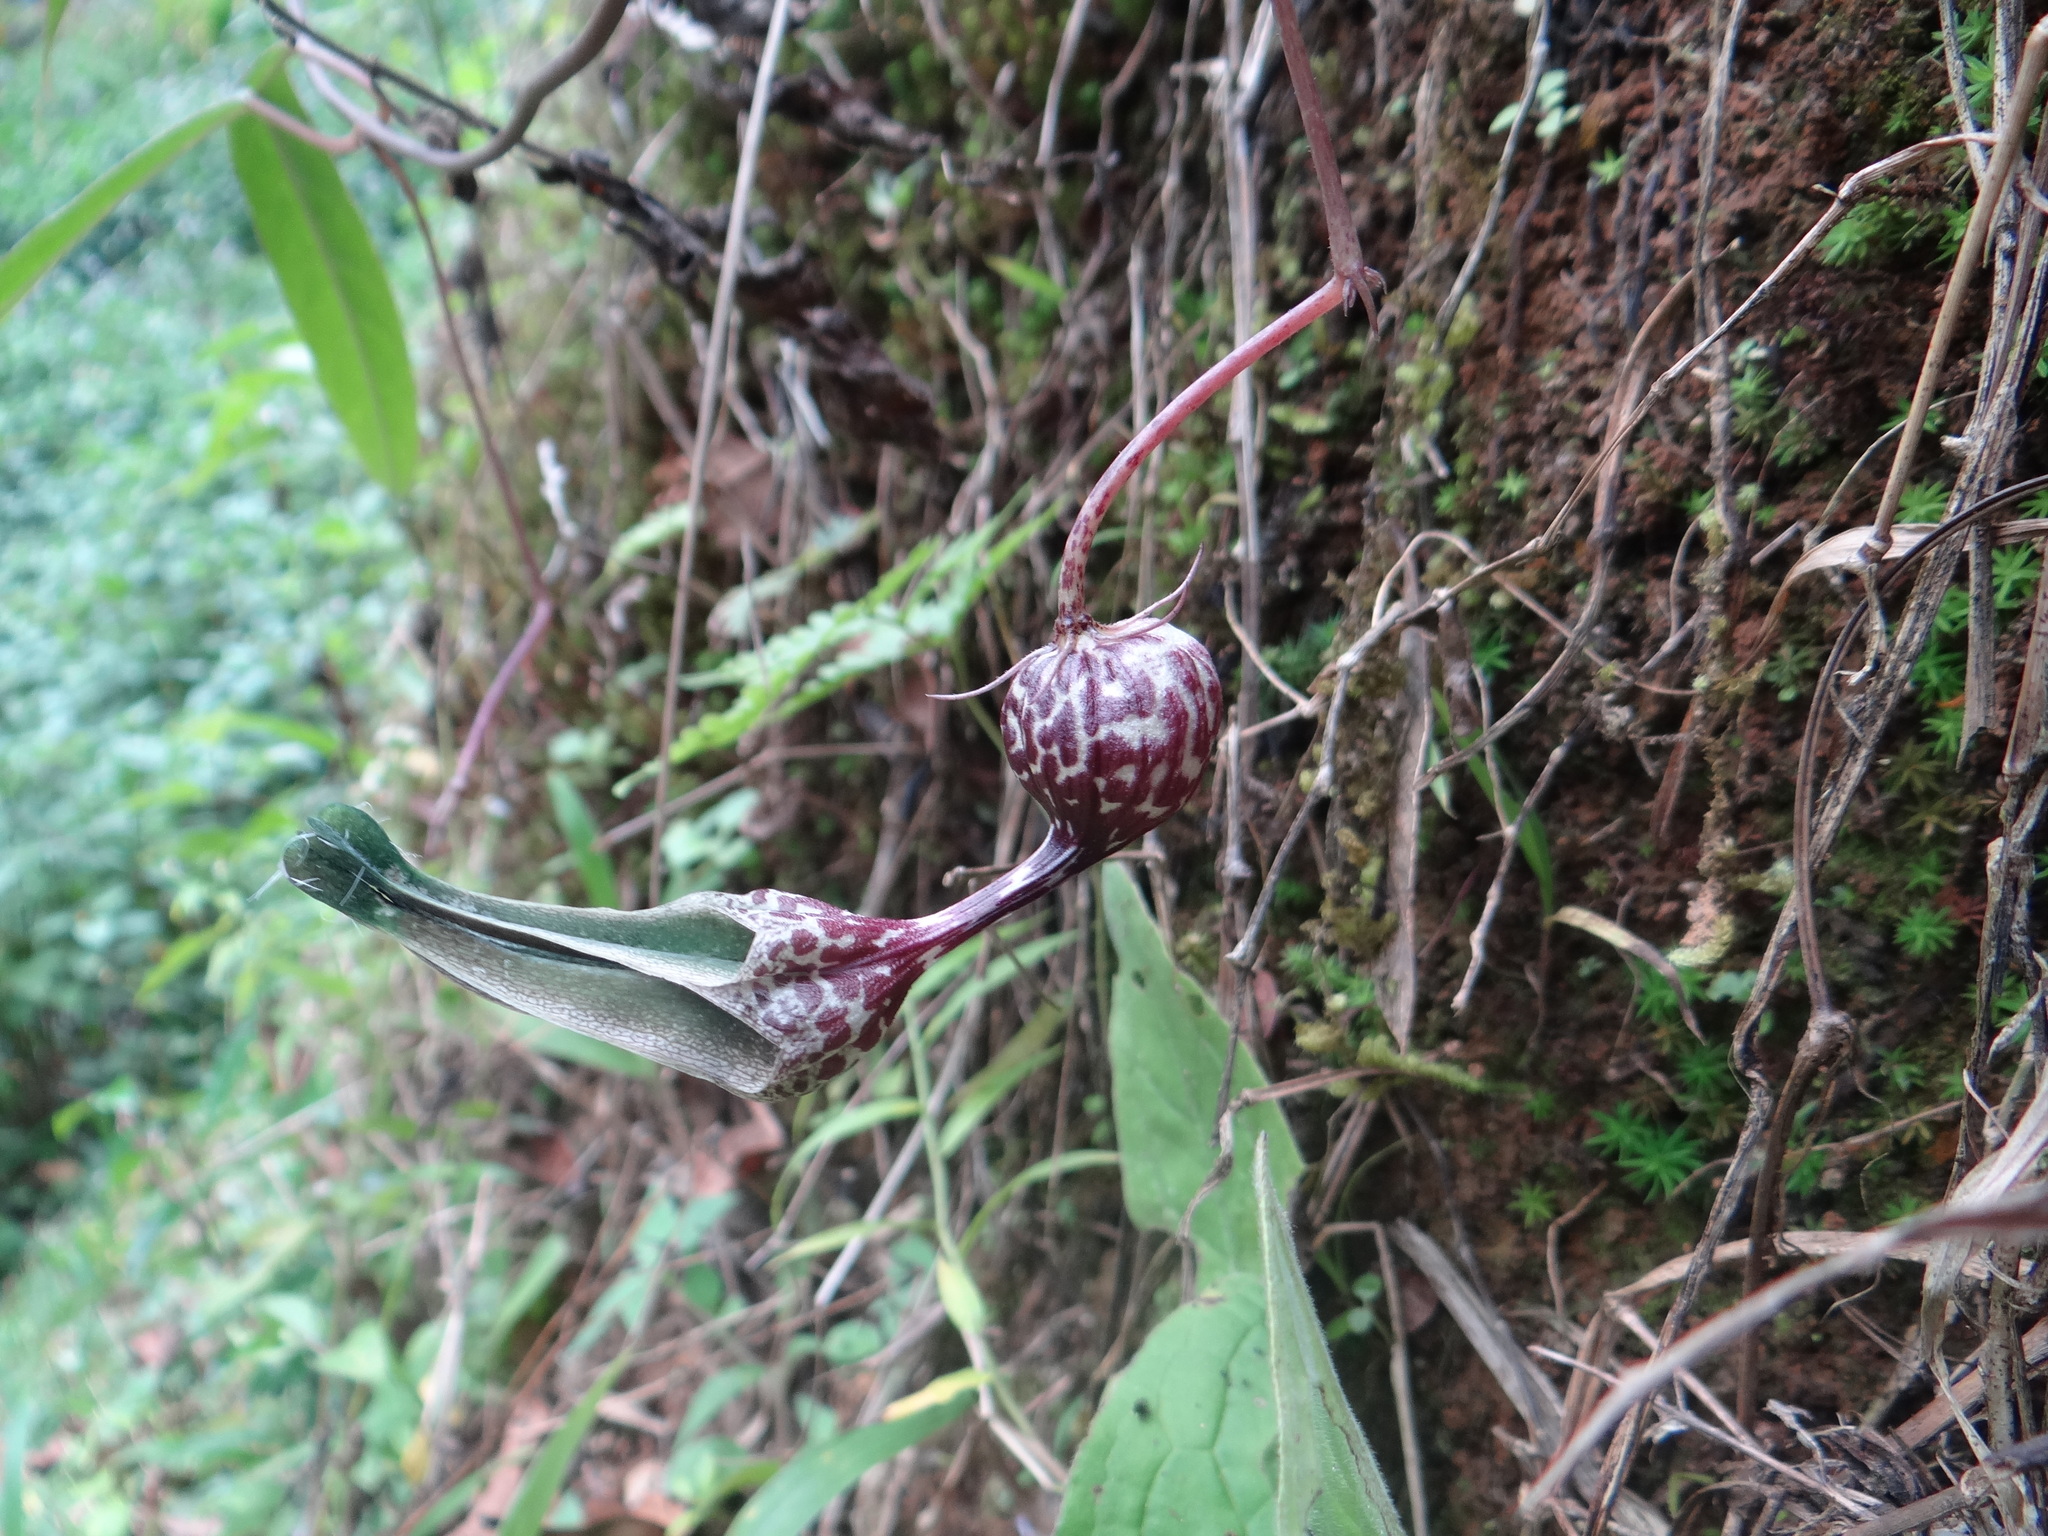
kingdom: Plantae
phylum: Tracheophyta
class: Magnoliopsida
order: Gentianales
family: Apocynaceae
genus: Ceropegia
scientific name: Ceropegia decaisneana
